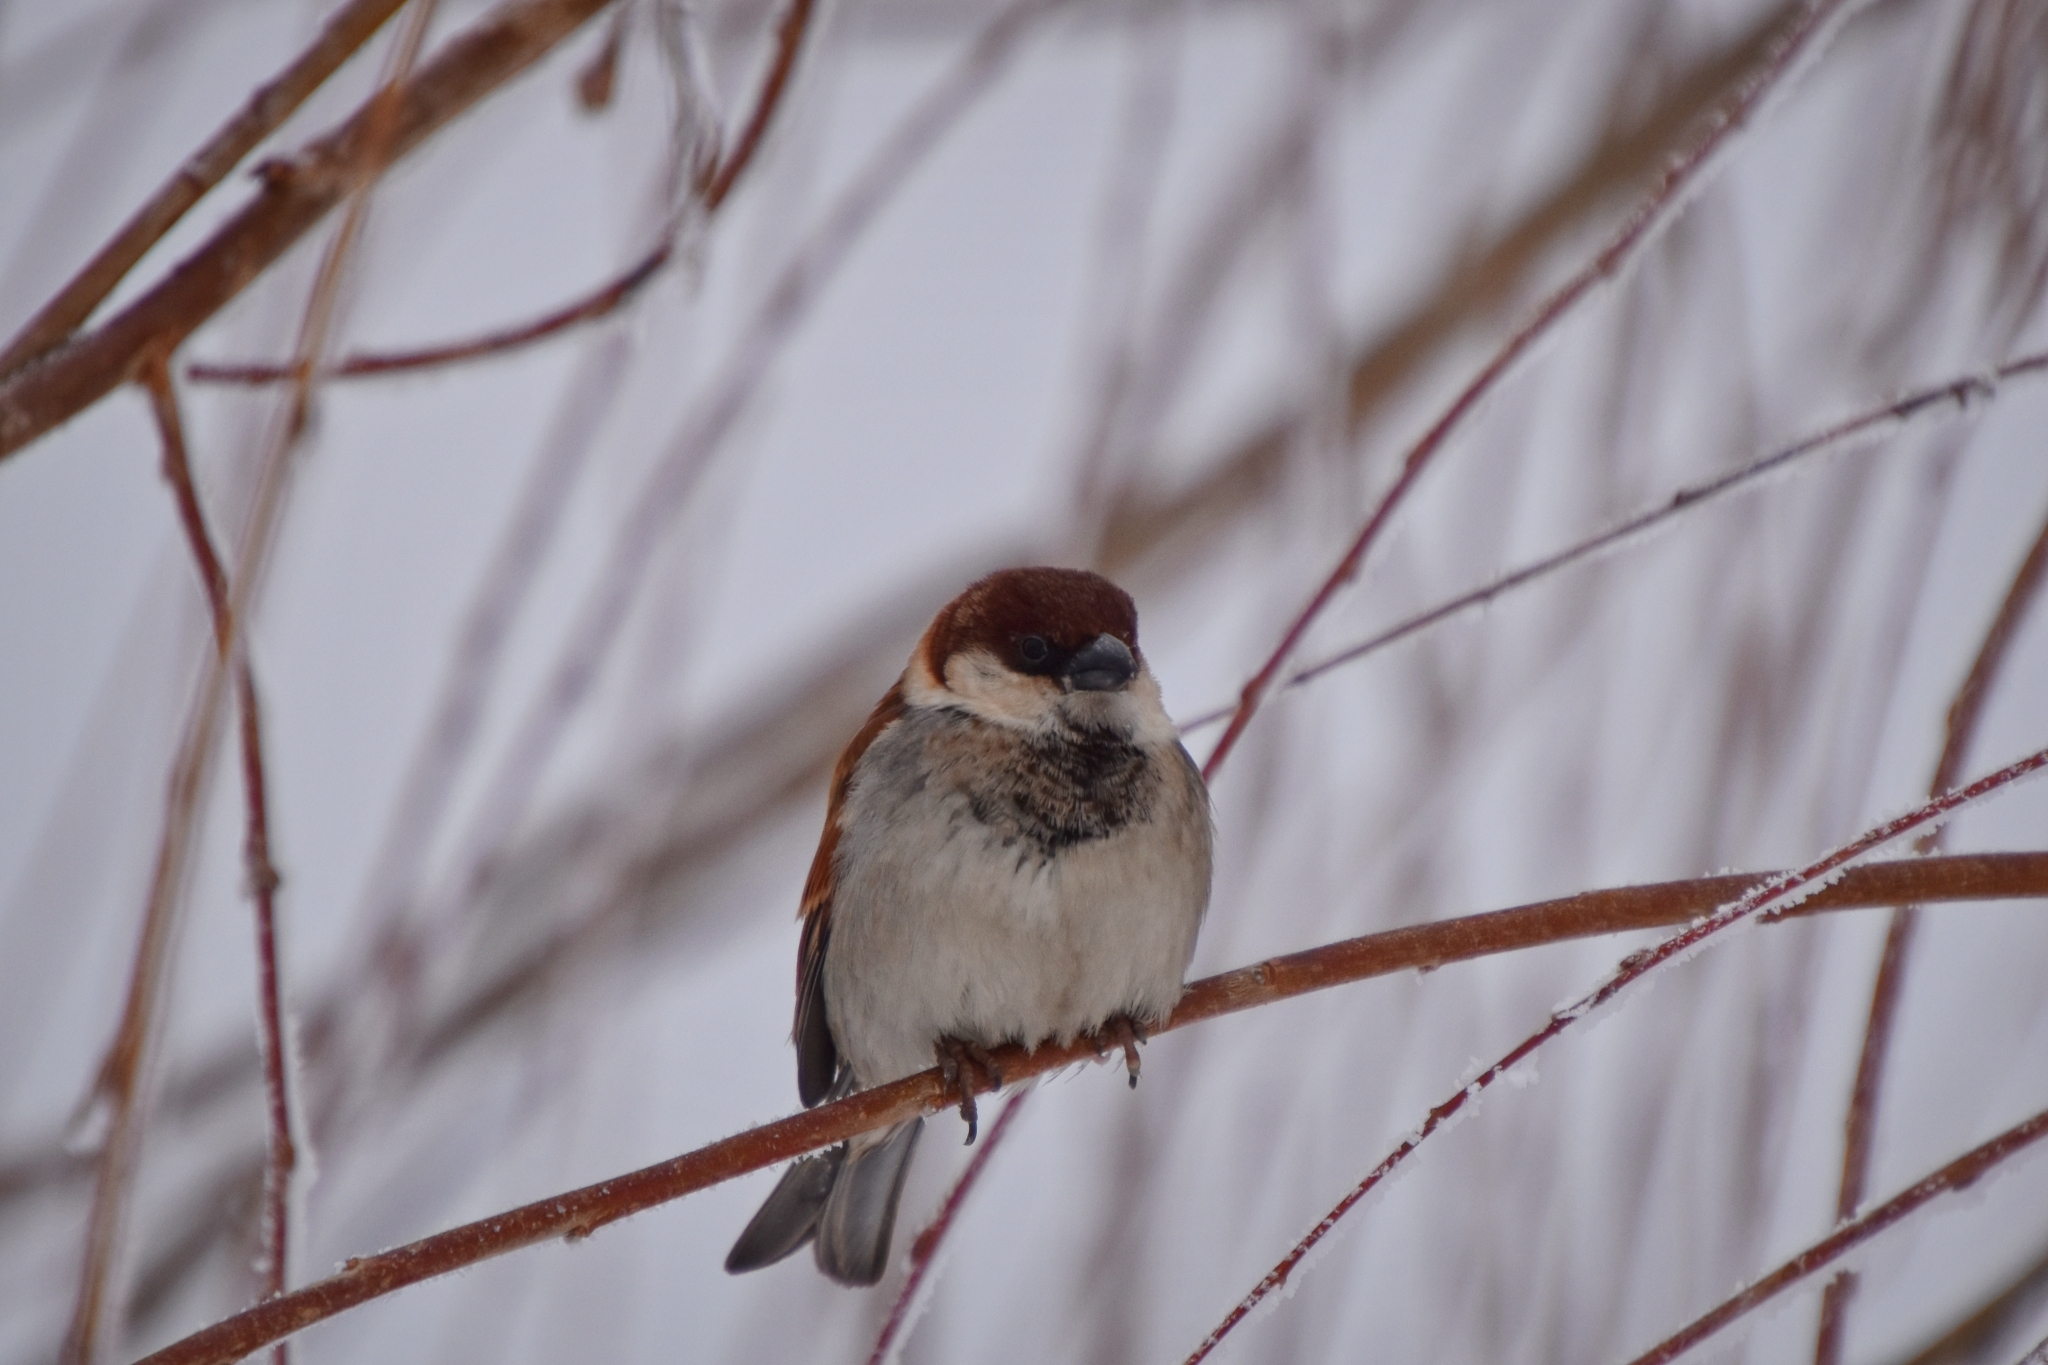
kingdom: Animalia
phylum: Chordata
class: Aves
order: Passeriformes
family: Passeridae
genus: Passer
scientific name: Passer
